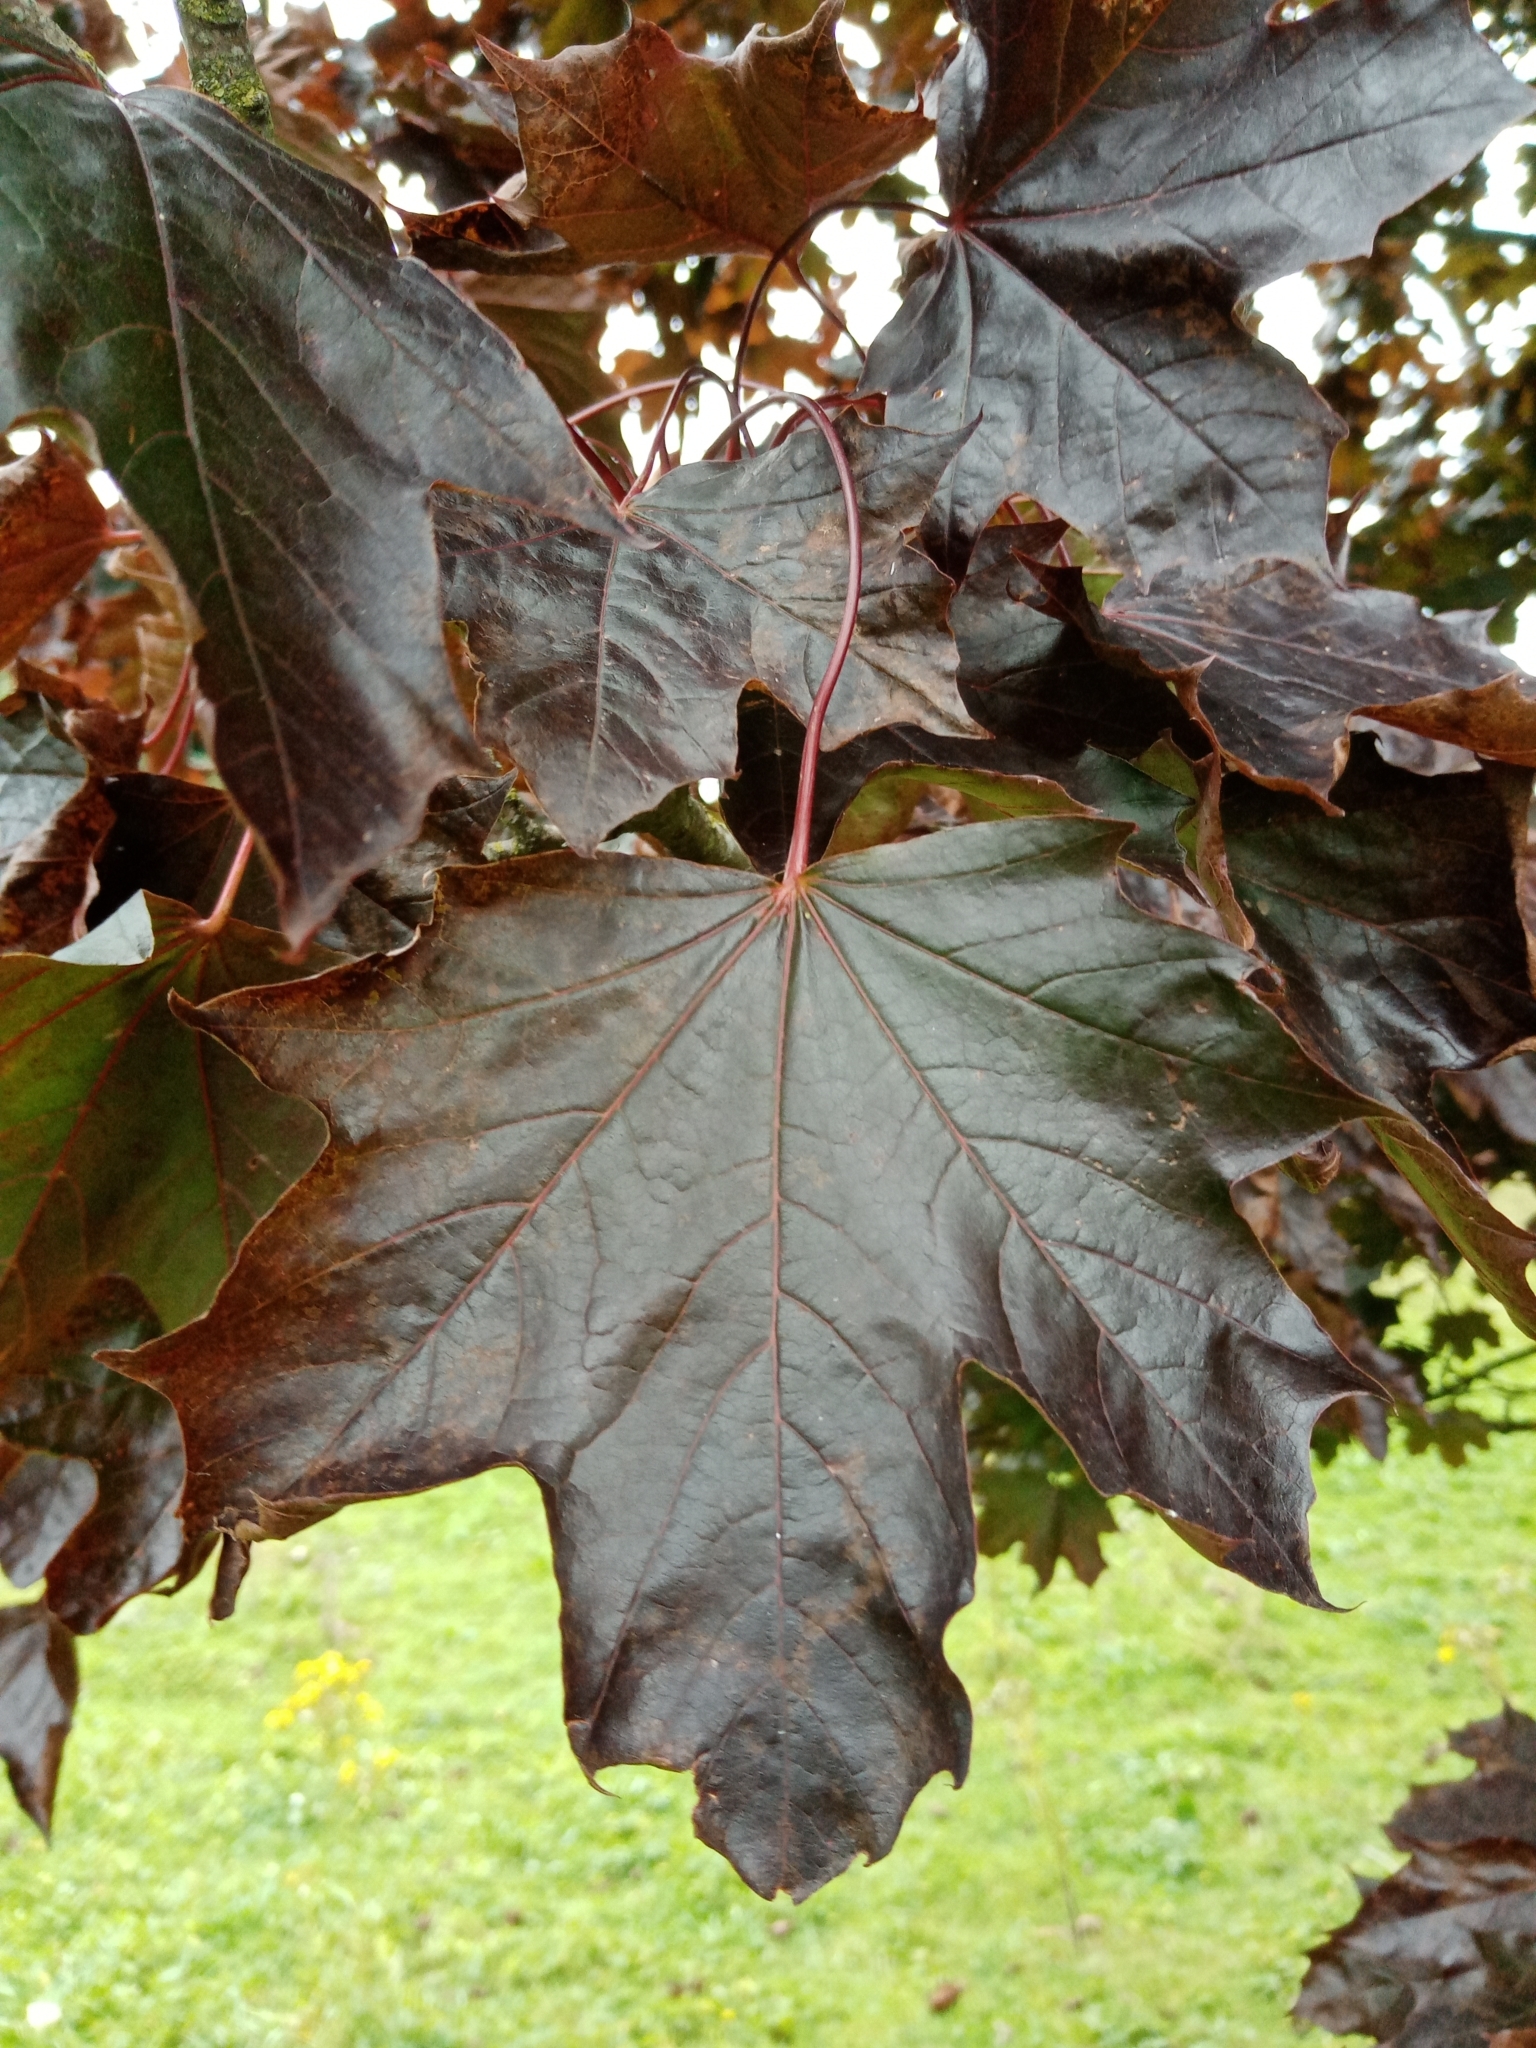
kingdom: Plantae
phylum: Tracheophyta
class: Magnoliopsida
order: Sapindales
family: Sapindaceae
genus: Acer
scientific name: Acer platanoides
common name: Norway maple
